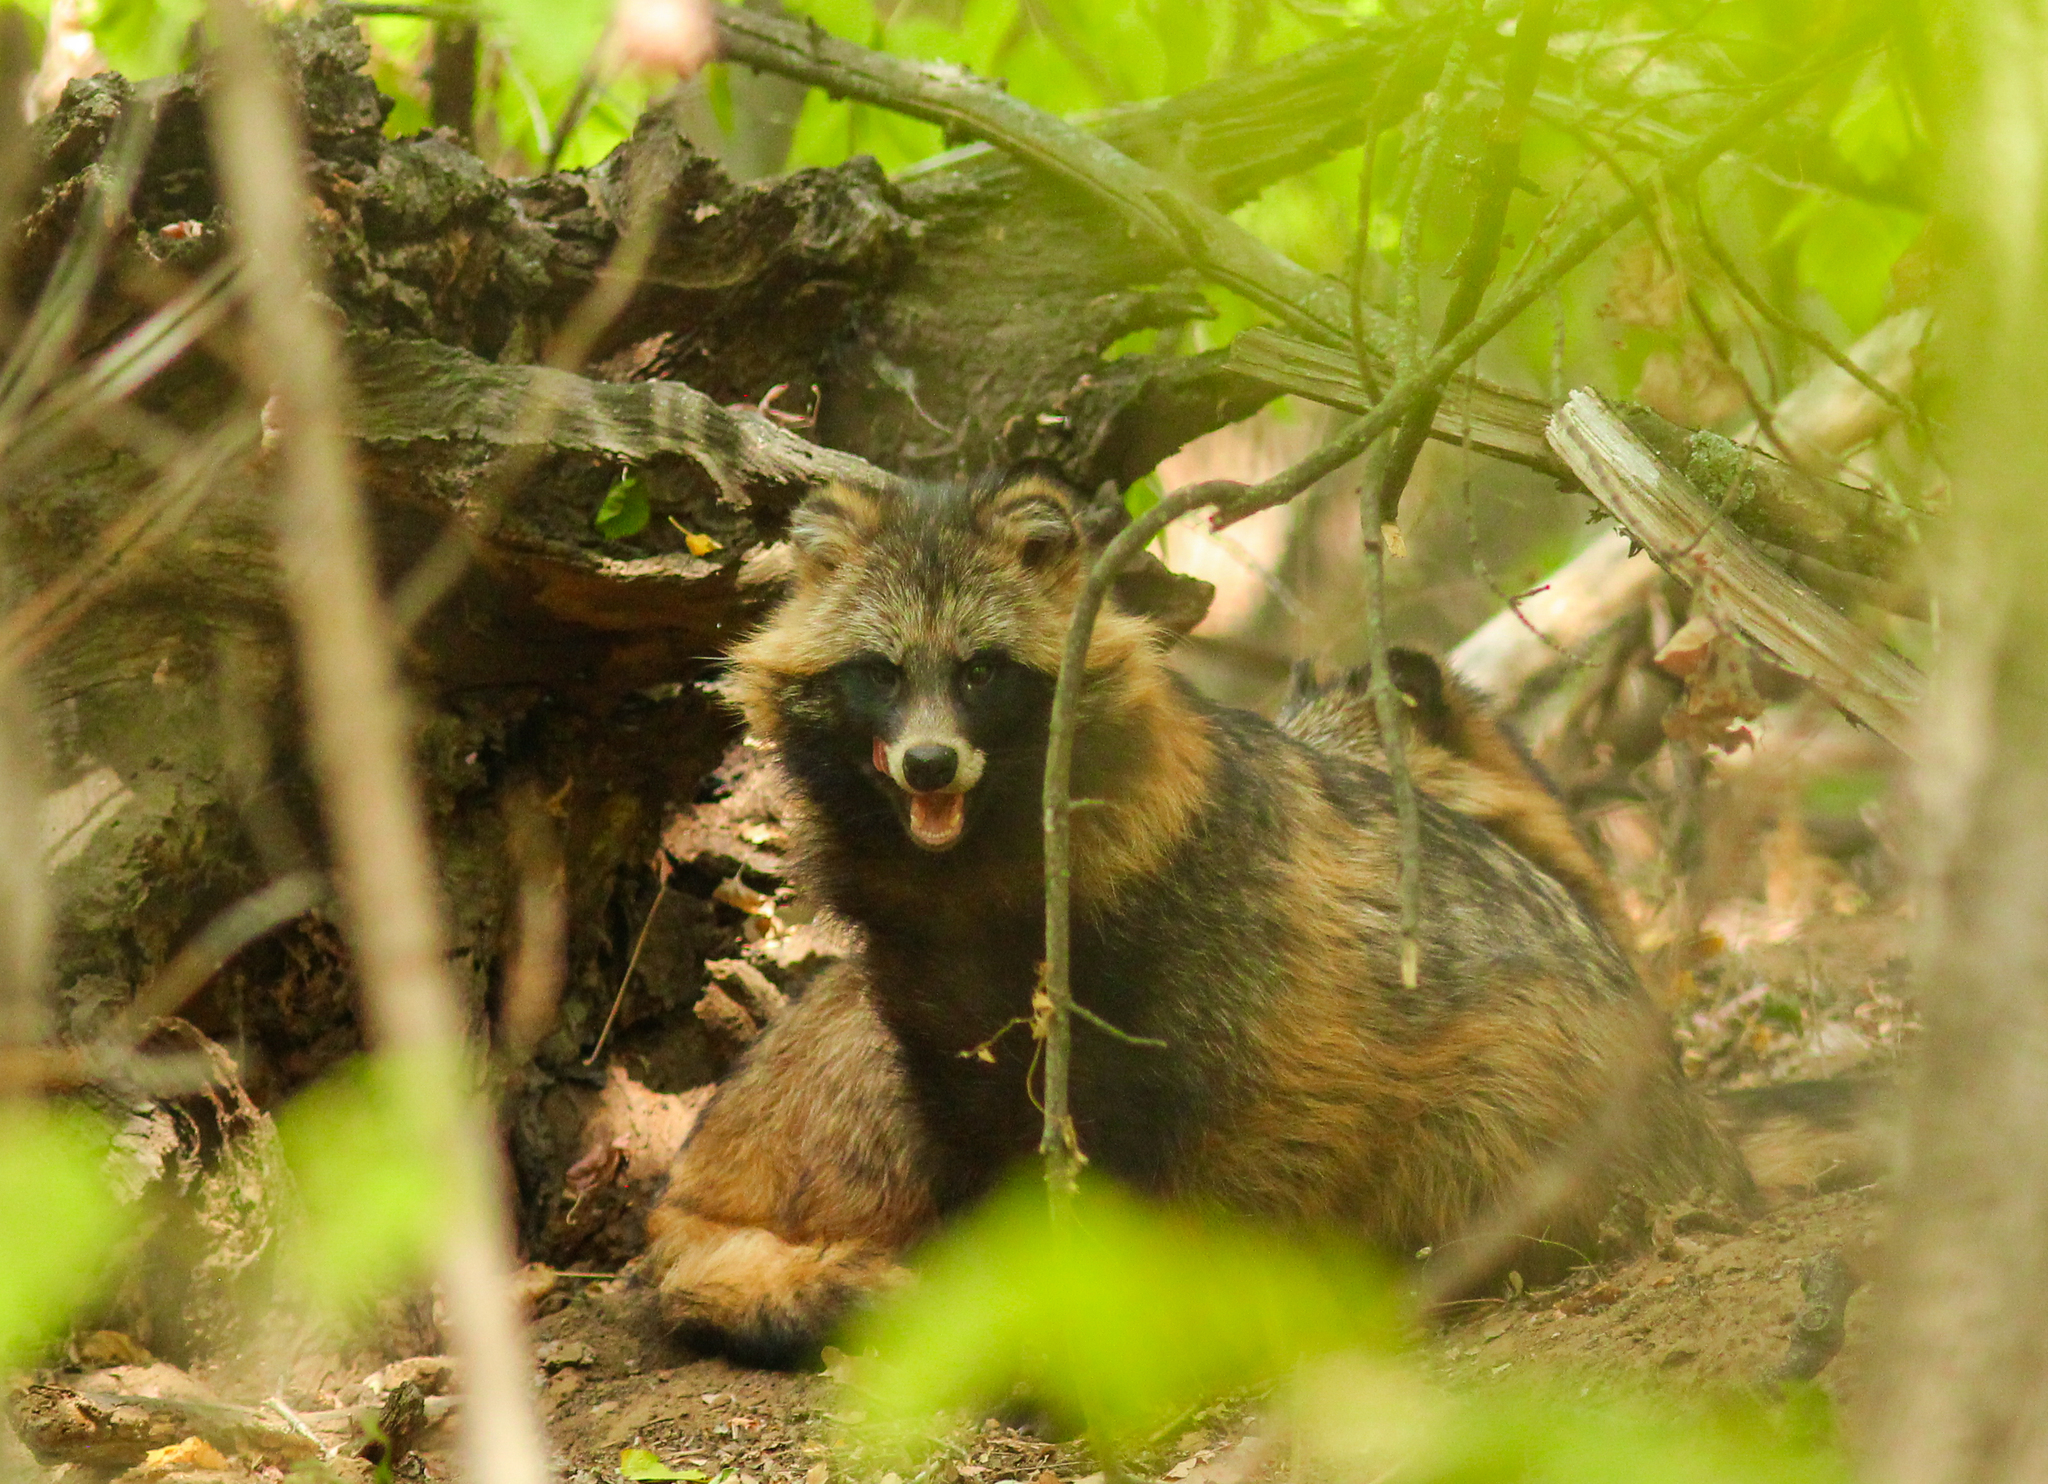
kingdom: Animalia
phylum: Chordata
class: Mammalia
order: Carnivora
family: Canidae
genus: Nyctereutes
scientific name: Nyctereutes procyonoides
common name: Raccoon dog
